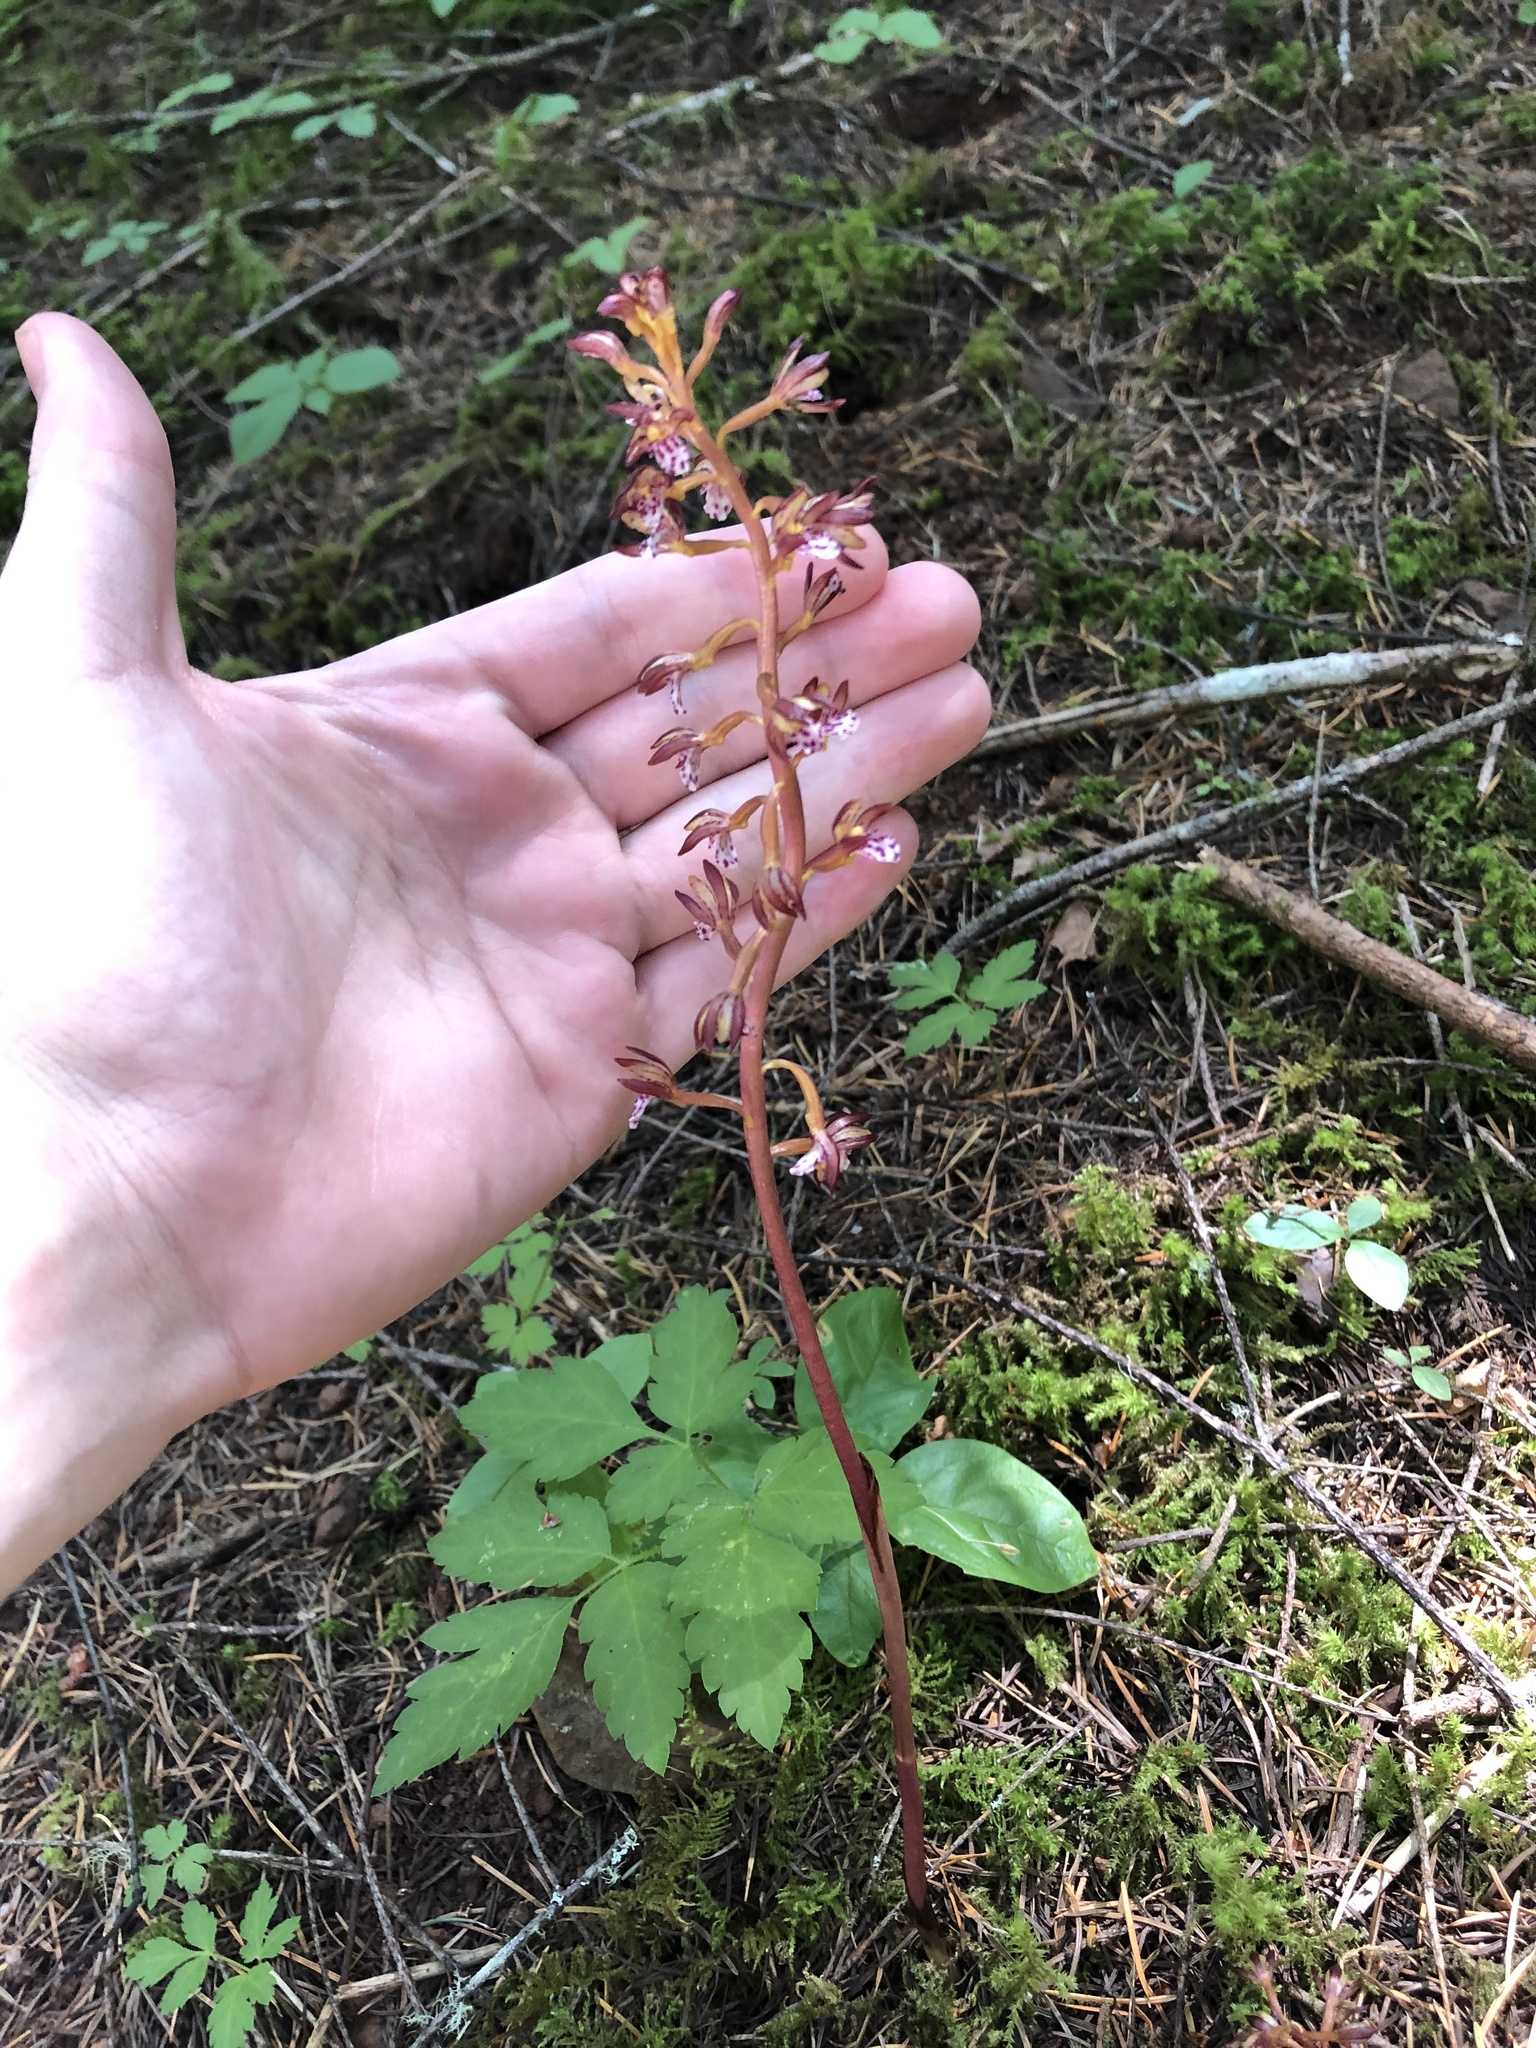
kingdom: Plantae
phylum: Tracheophyta
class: Liliopsida
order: Asparagales
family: Orchidaceae
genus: Corallorhiza
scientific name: Corallorhiza maculata
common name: Spotted coralroot
